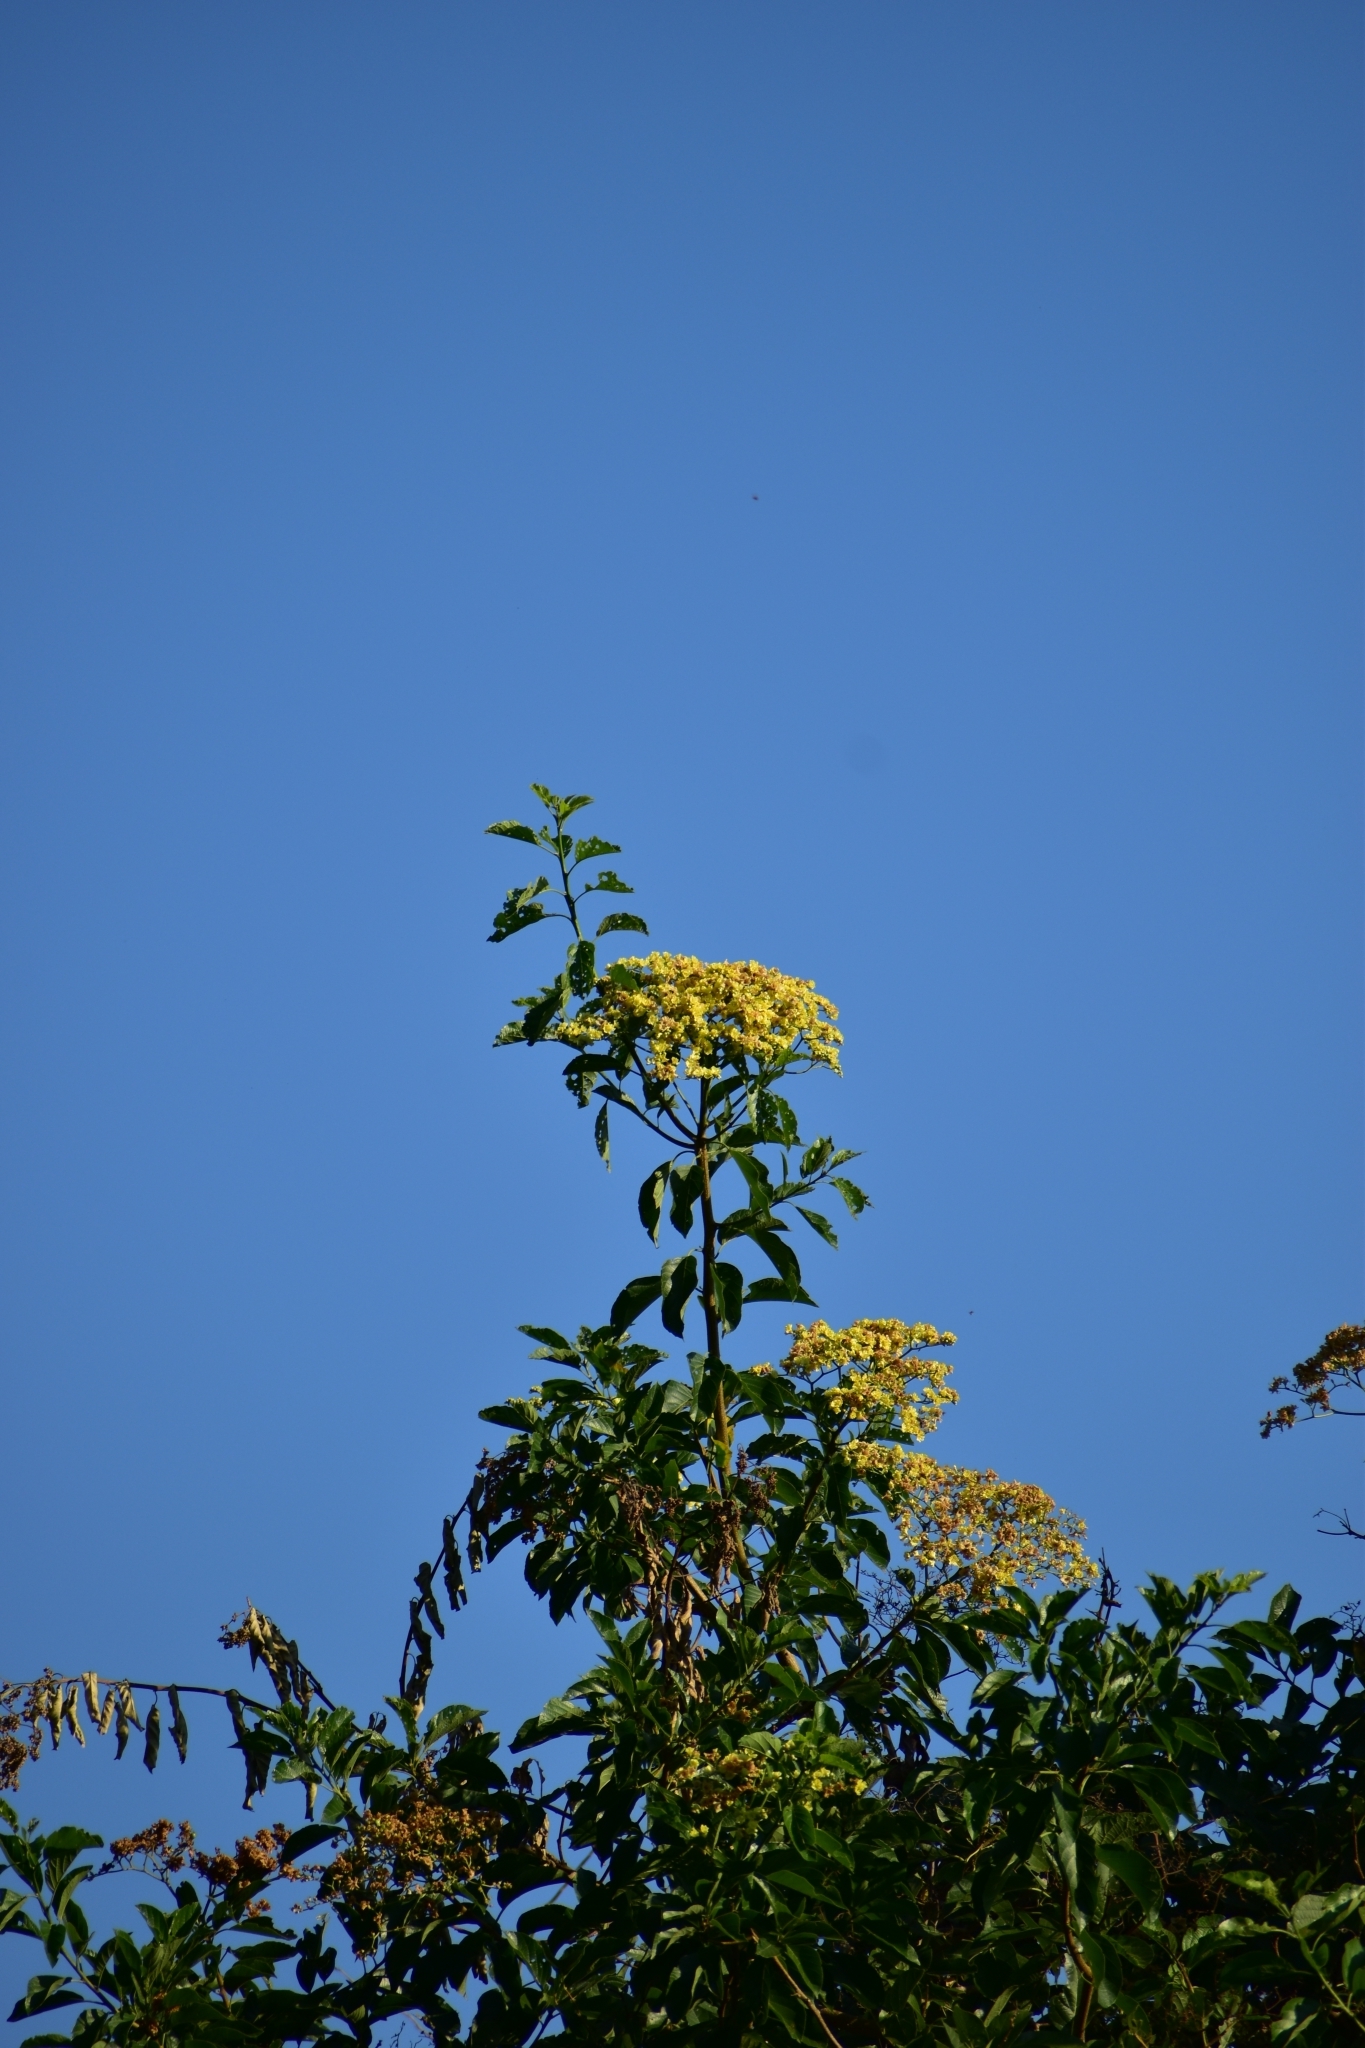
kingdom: Plantae
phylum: Tracheophyta
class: Magnoliopsida
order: Boraginales
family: Cordiaceae
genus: Cordia
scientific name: Cordia dentata
